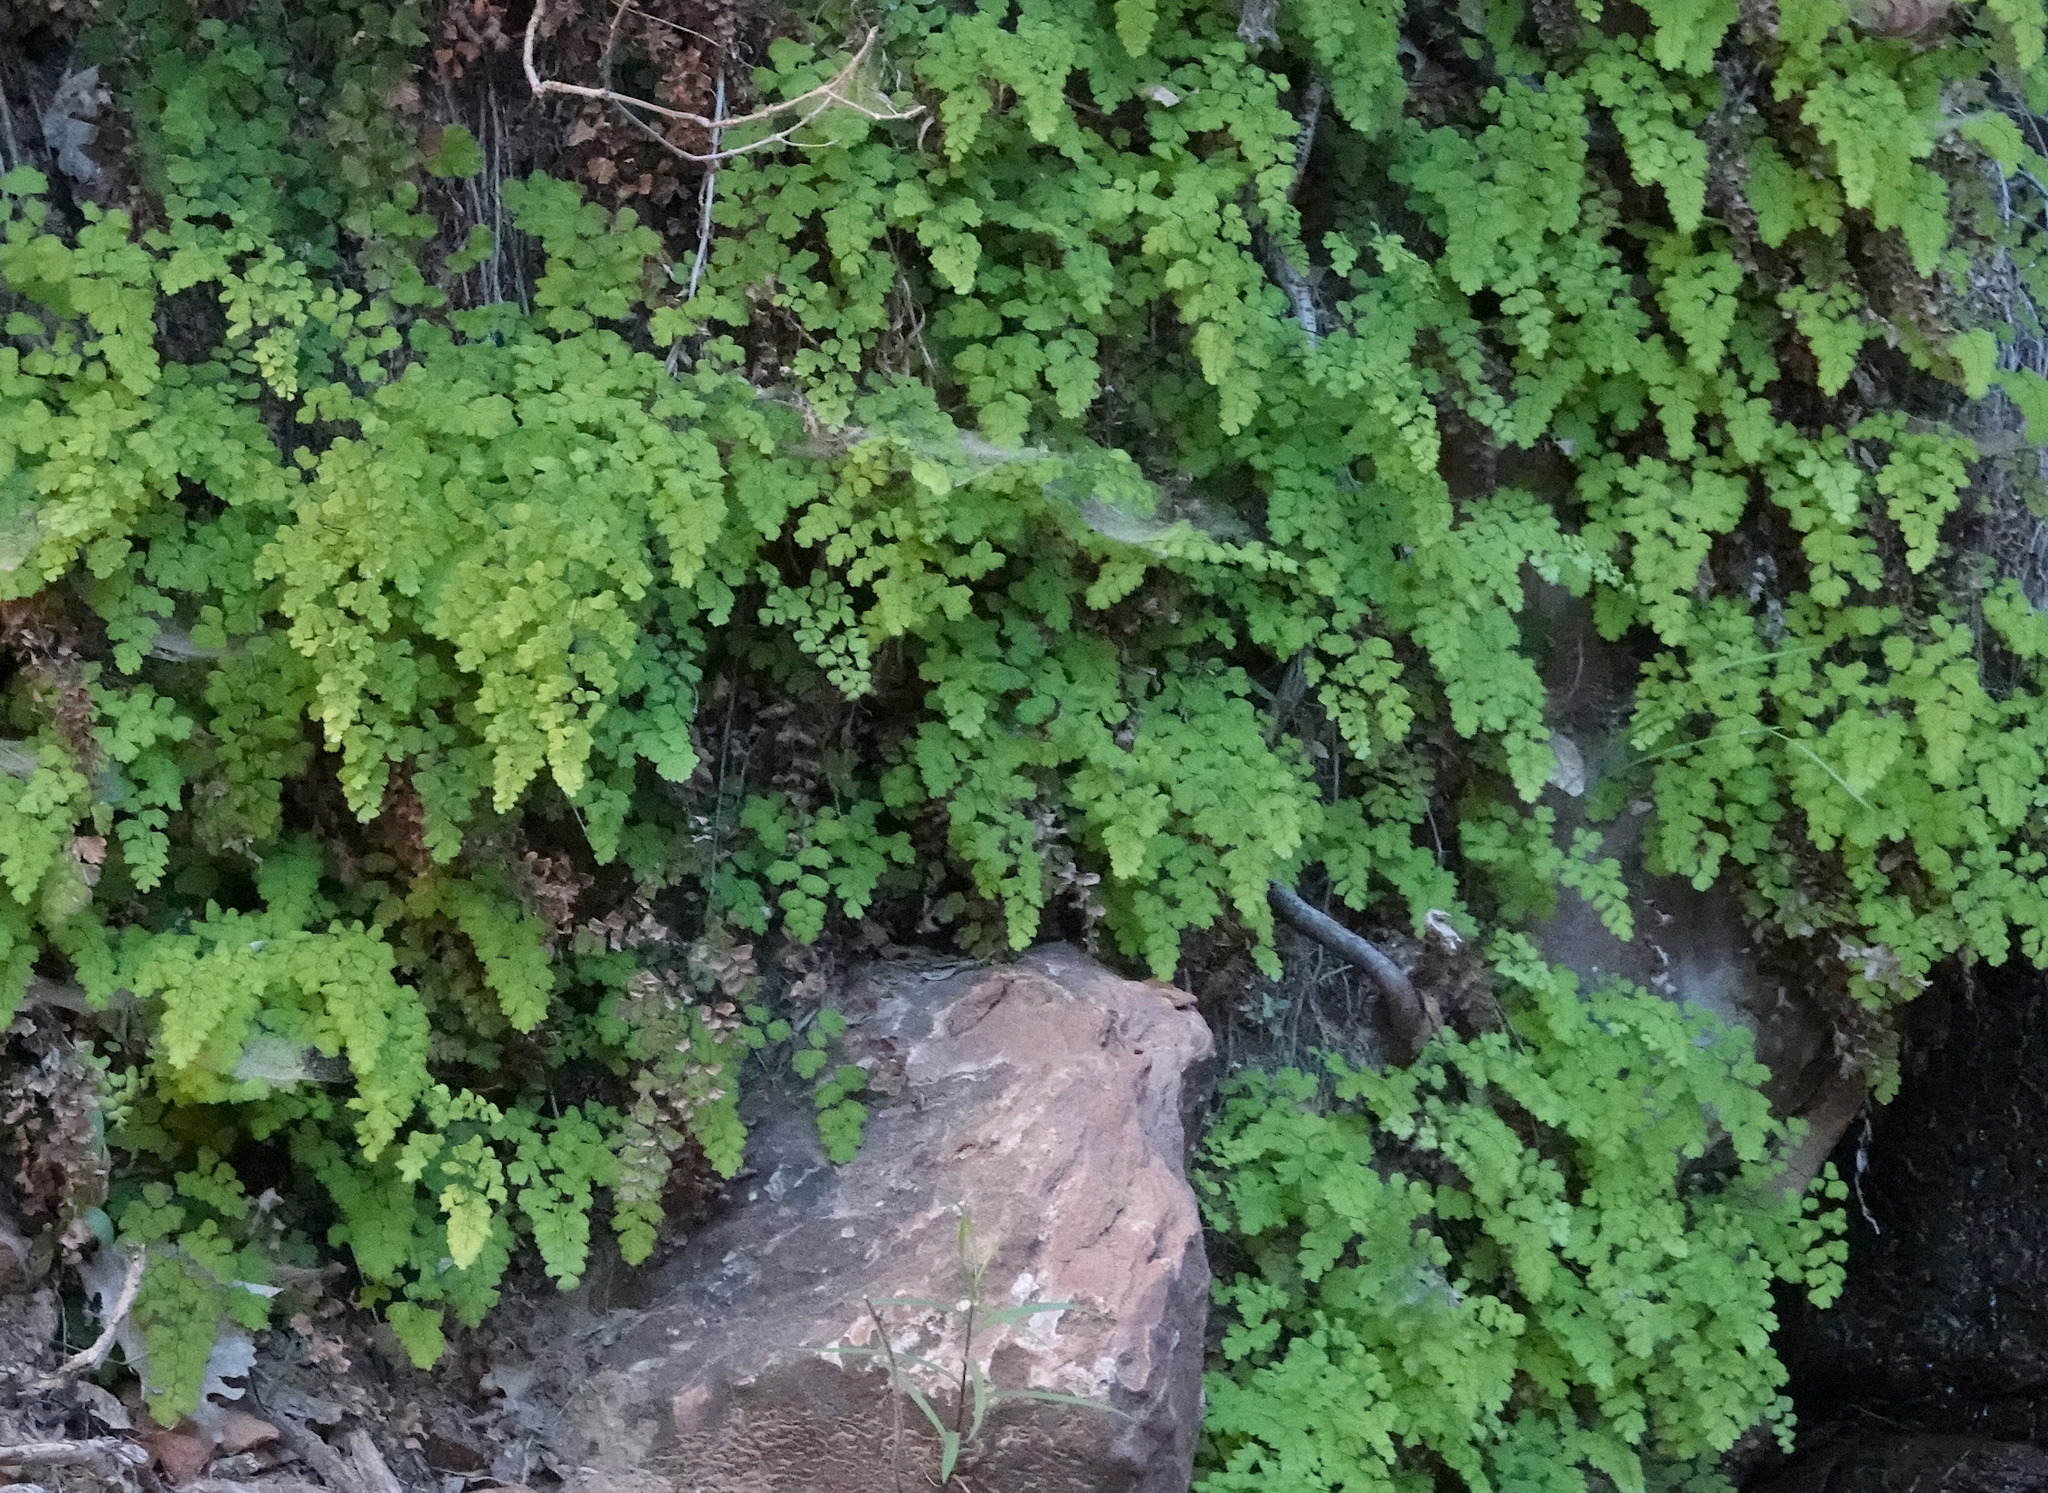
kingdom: Plantae
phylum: Tracheophyta
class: Polypodiopsida
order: Polypodiales
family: Pteridaceae
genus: Adiantum
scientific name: Adiantum capillus-veneris
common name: Maidenhair fern
